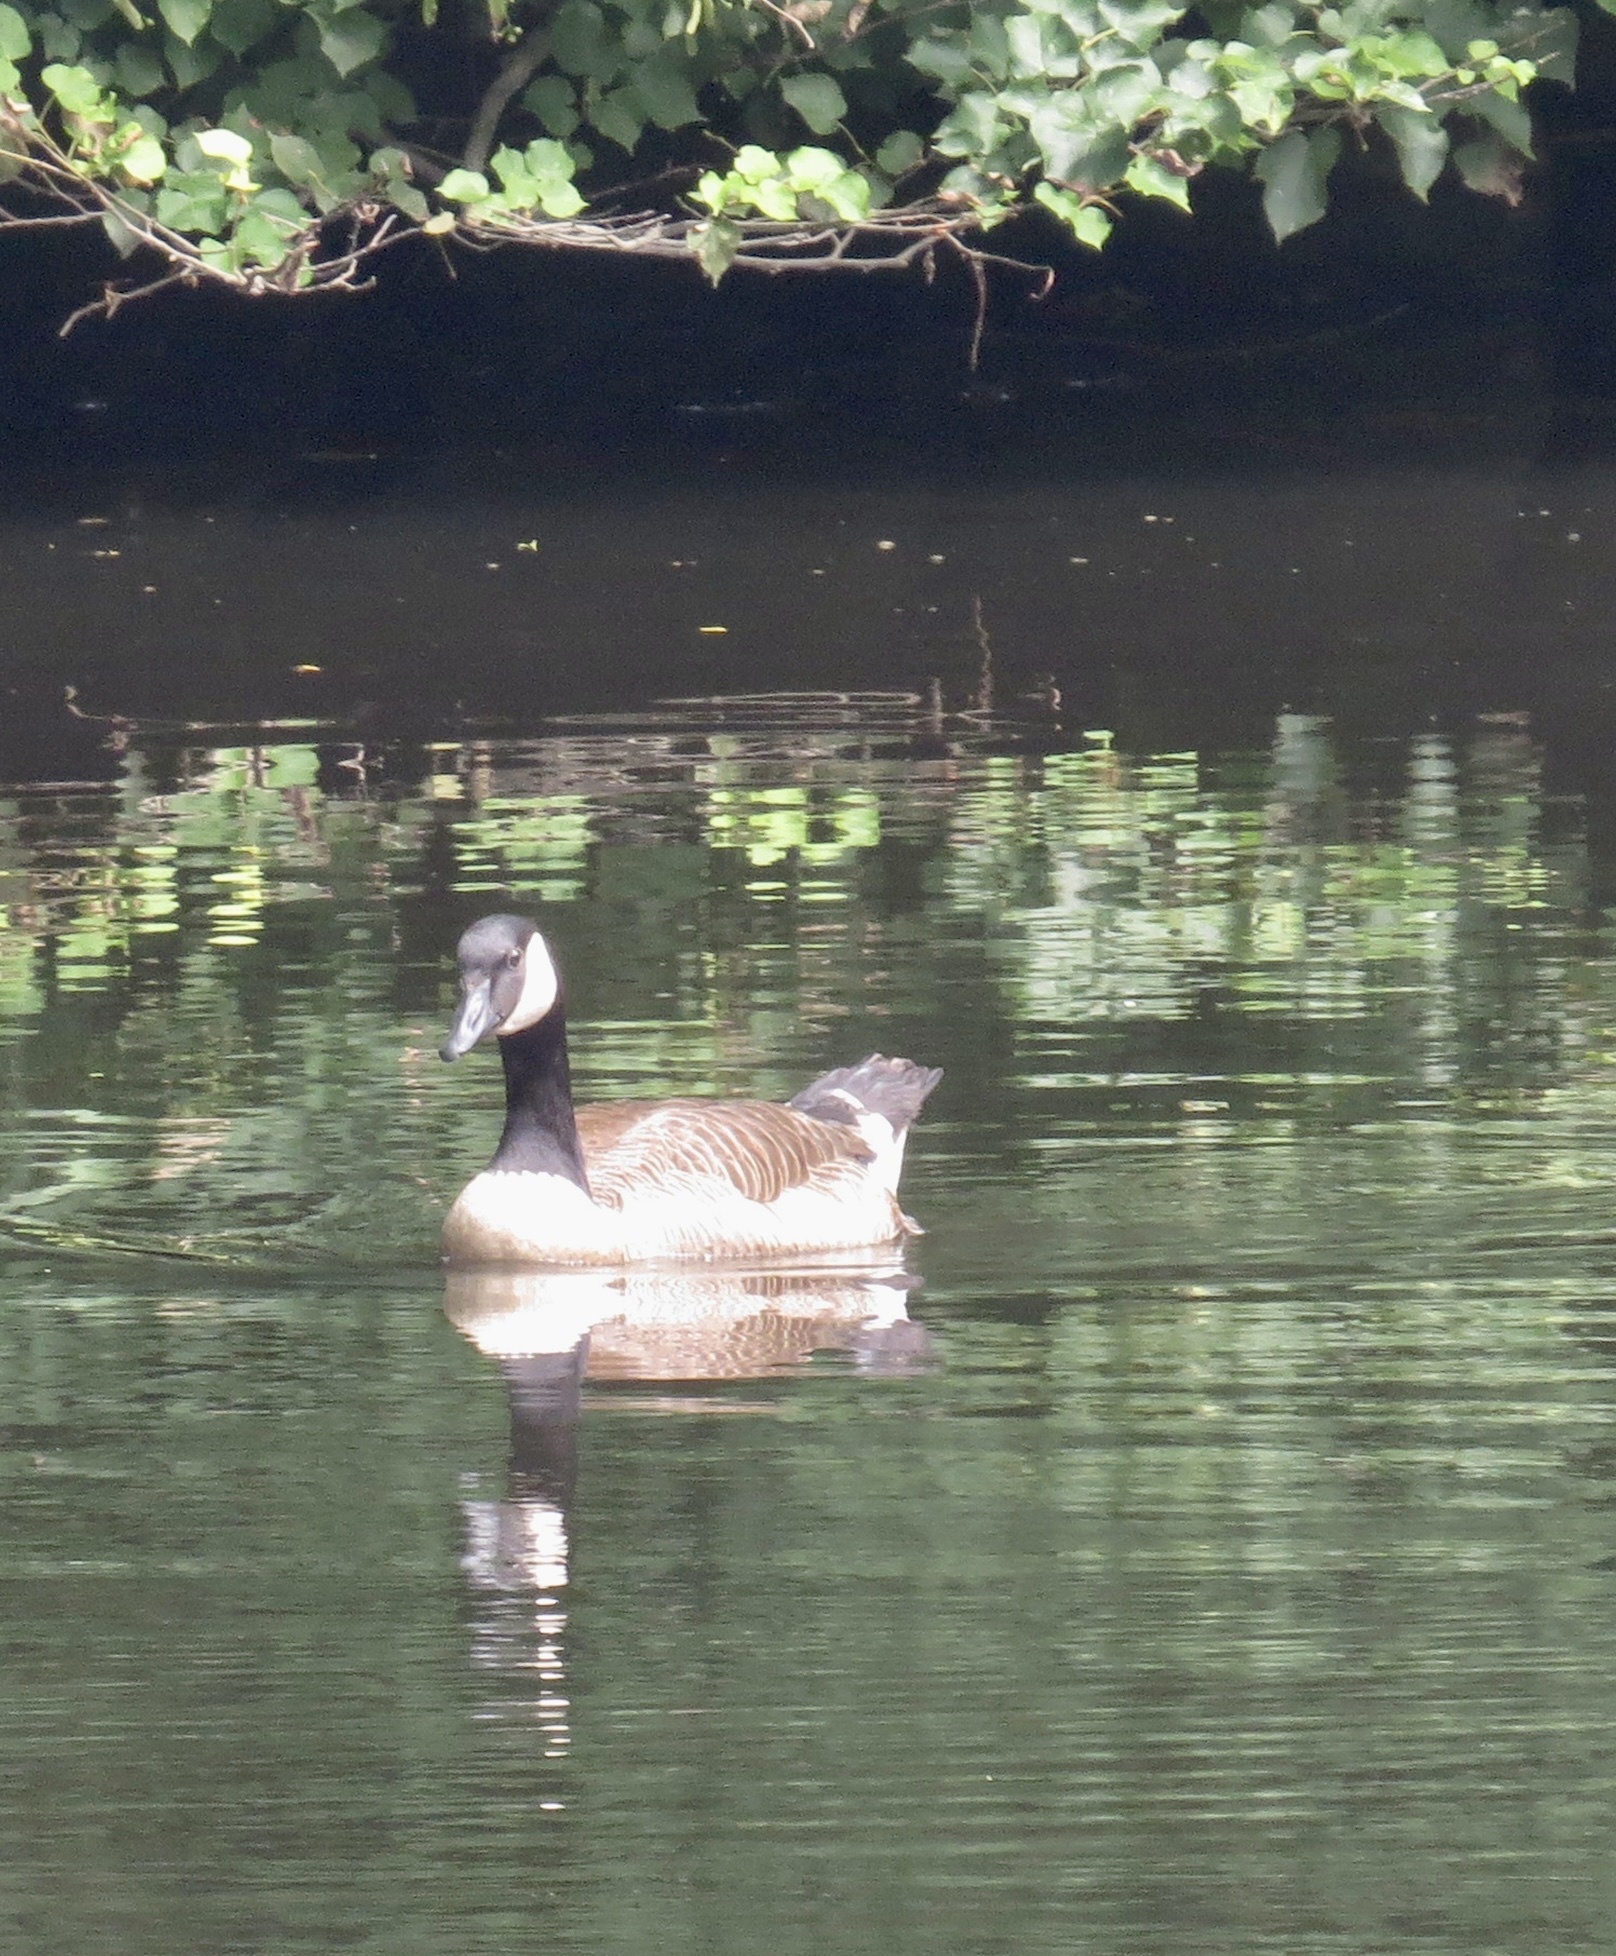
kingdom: Animalia
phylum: Chordata
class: Aves
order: Anseriformes
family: Anatidae
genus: Branta
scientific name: Branta canadensis
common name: Canada goose
